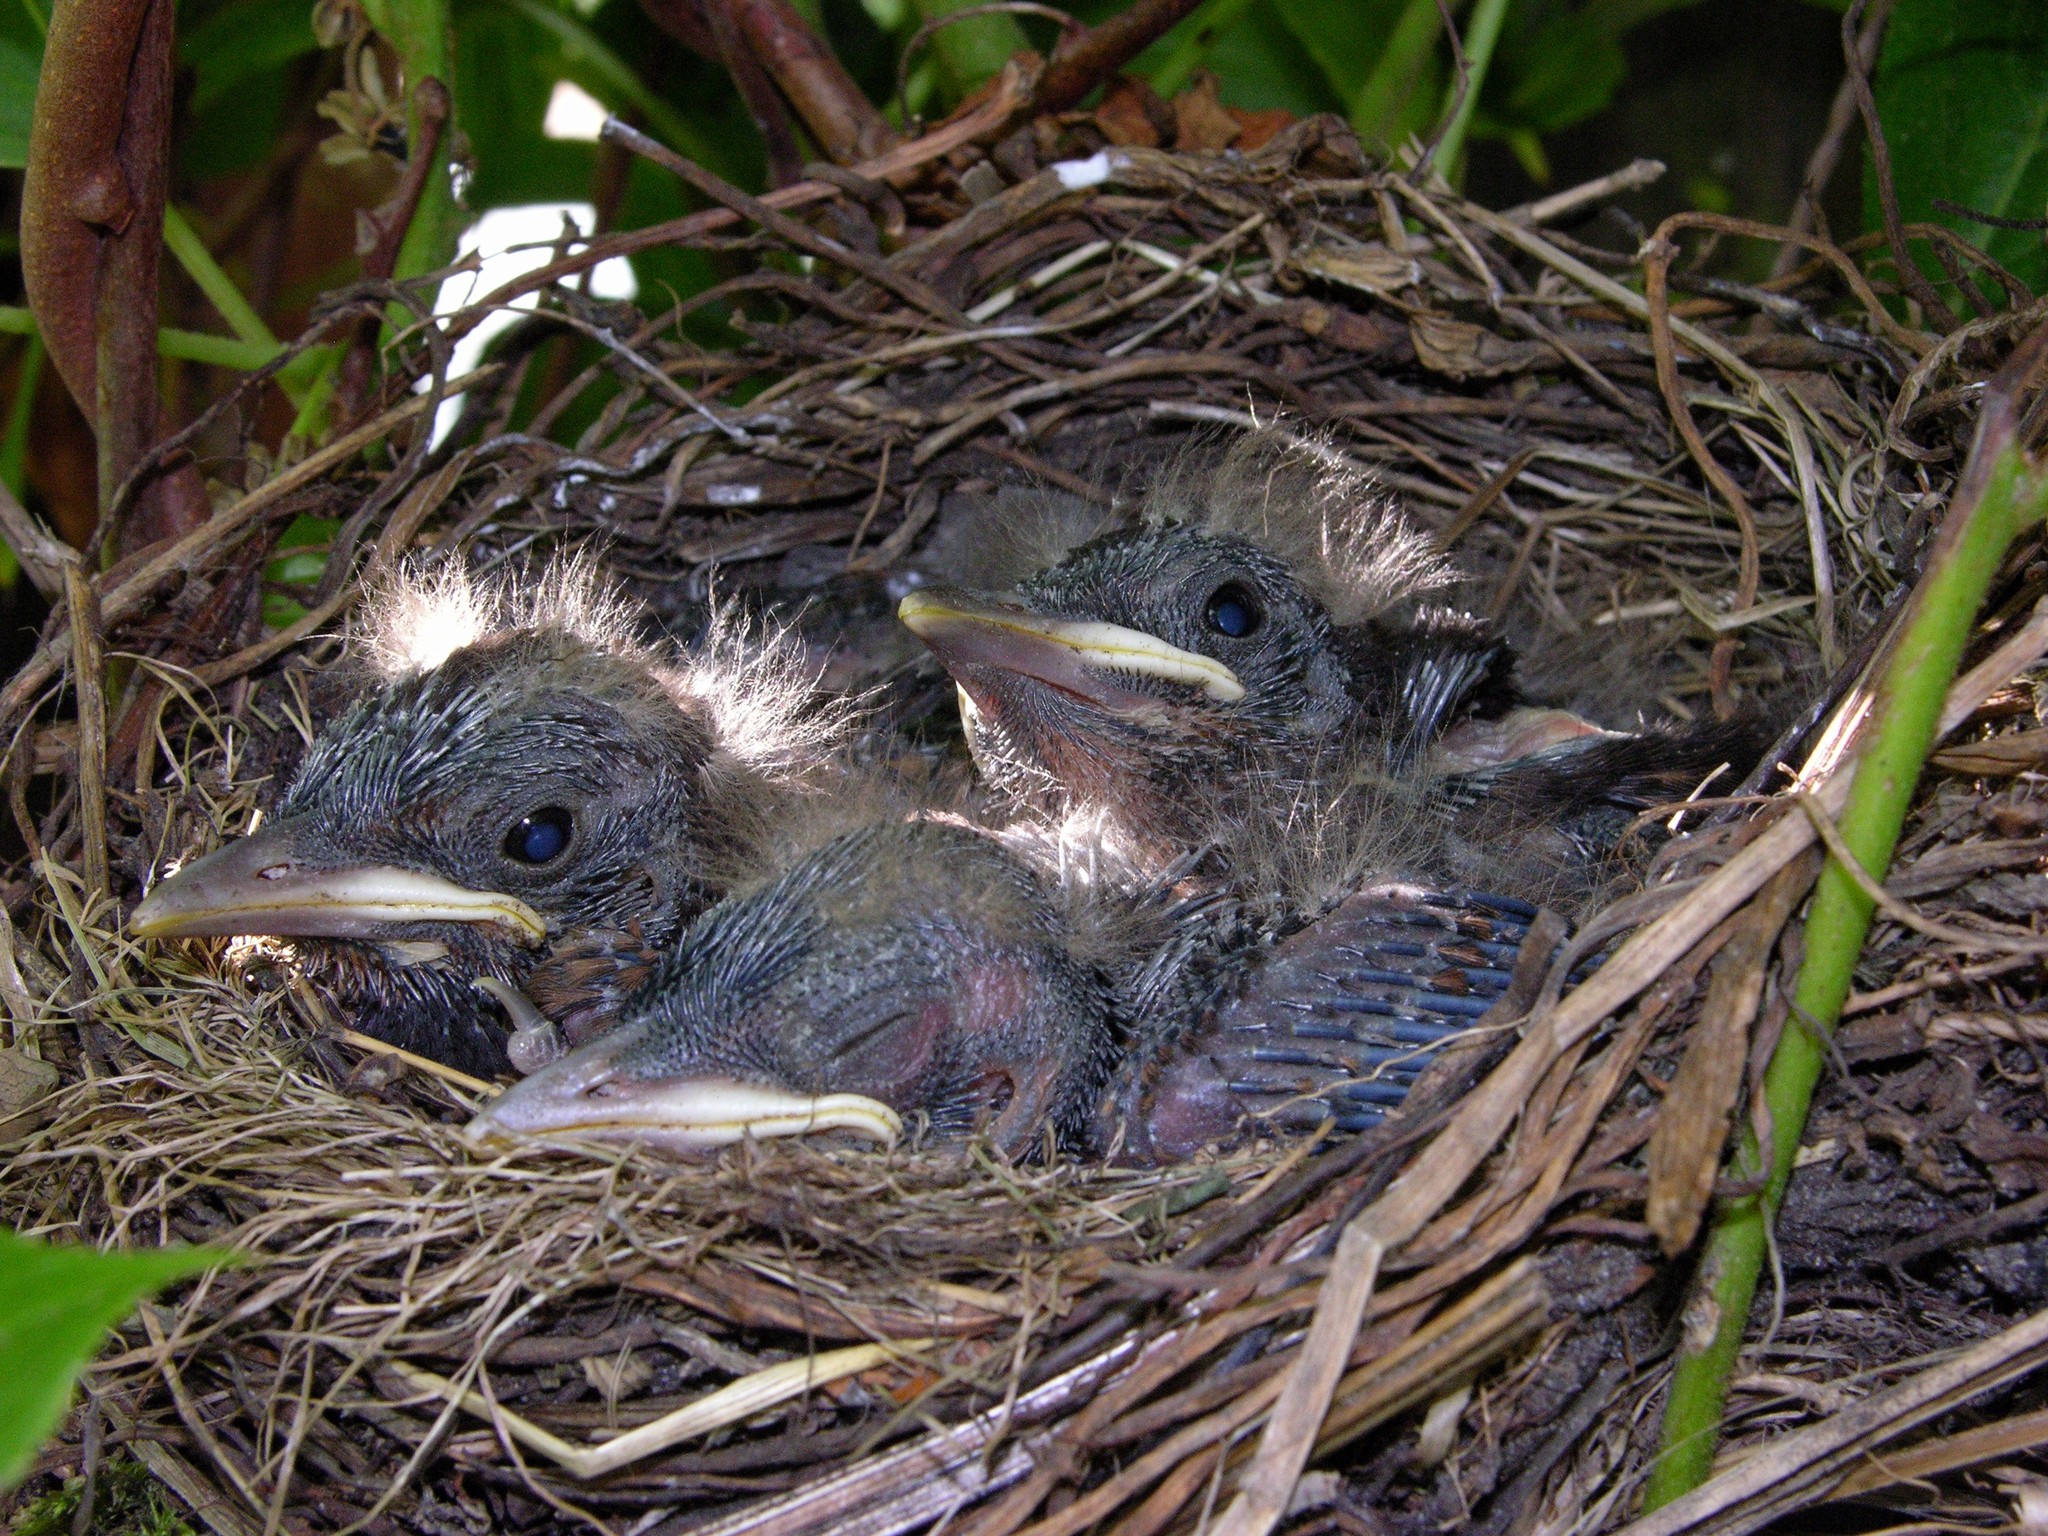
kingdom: Animalia
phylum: Chordata
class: Aves
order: Passeriformes
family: Turdidae
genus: Turdus
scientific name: Turdus merula
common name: Common blackbird
